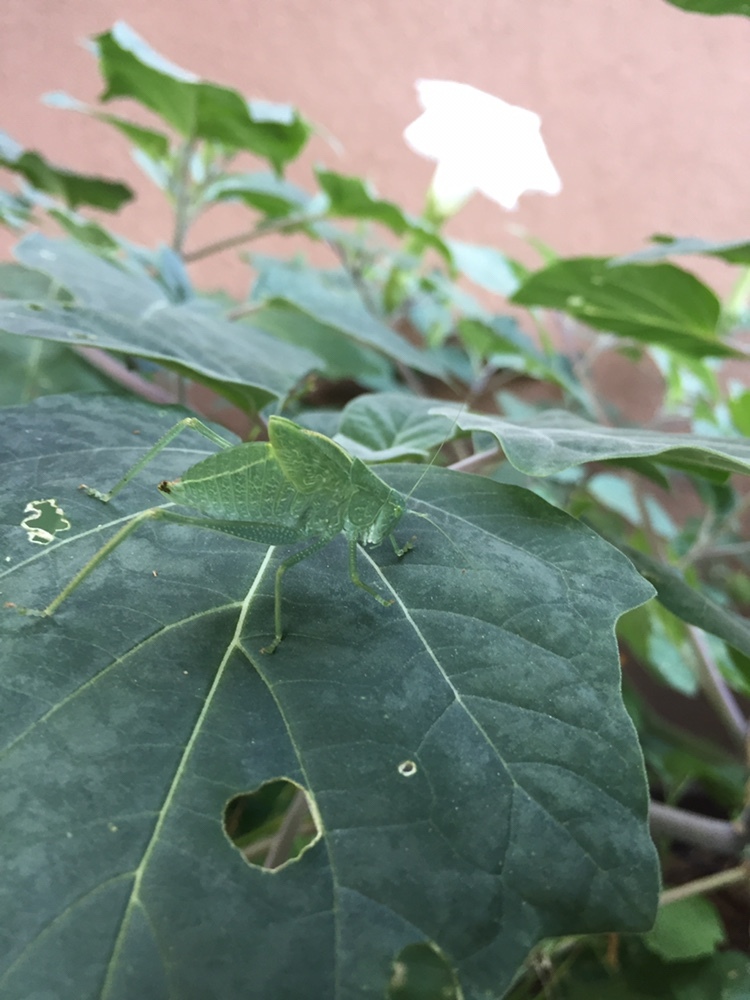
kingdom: Animalia
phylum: Arthropoda
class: Insecta
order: Orthoptera
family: Tettigoniidae
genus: Microcentrum
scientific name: Microcentrum rhombifolium
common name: Broad-winged katydid
